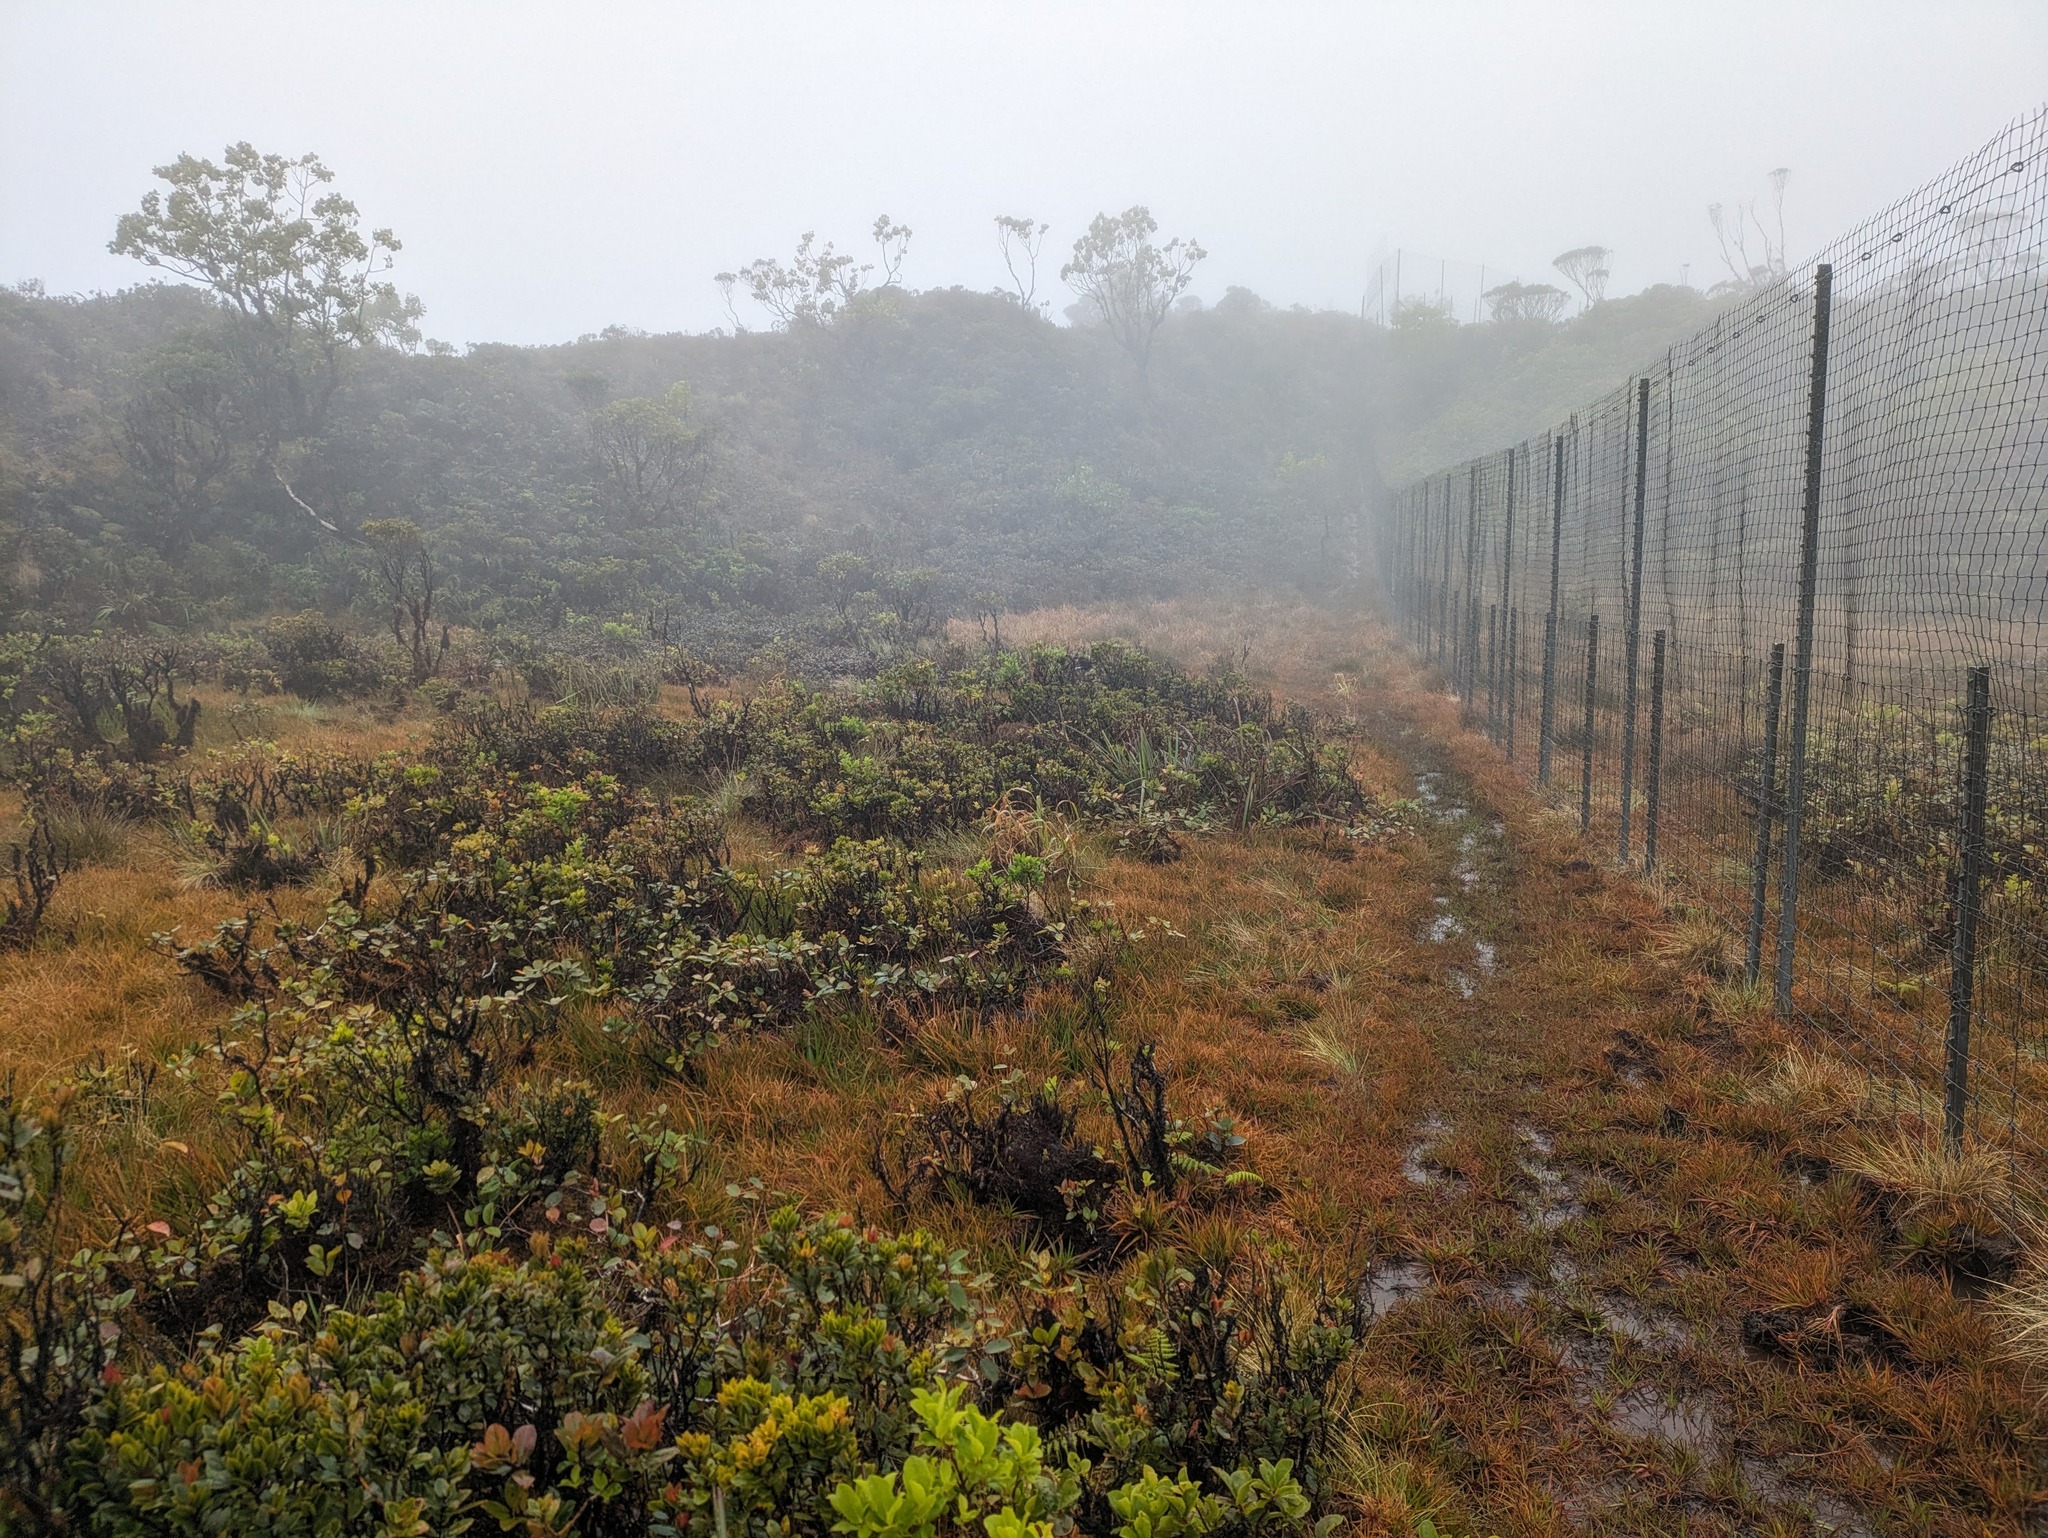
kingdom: Plantae
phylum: Tracheophyta
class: Liliopsida
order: Poales
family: Juncaceae
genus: Juncus
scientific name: Juncus planifolius
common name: Broadleaf rush
